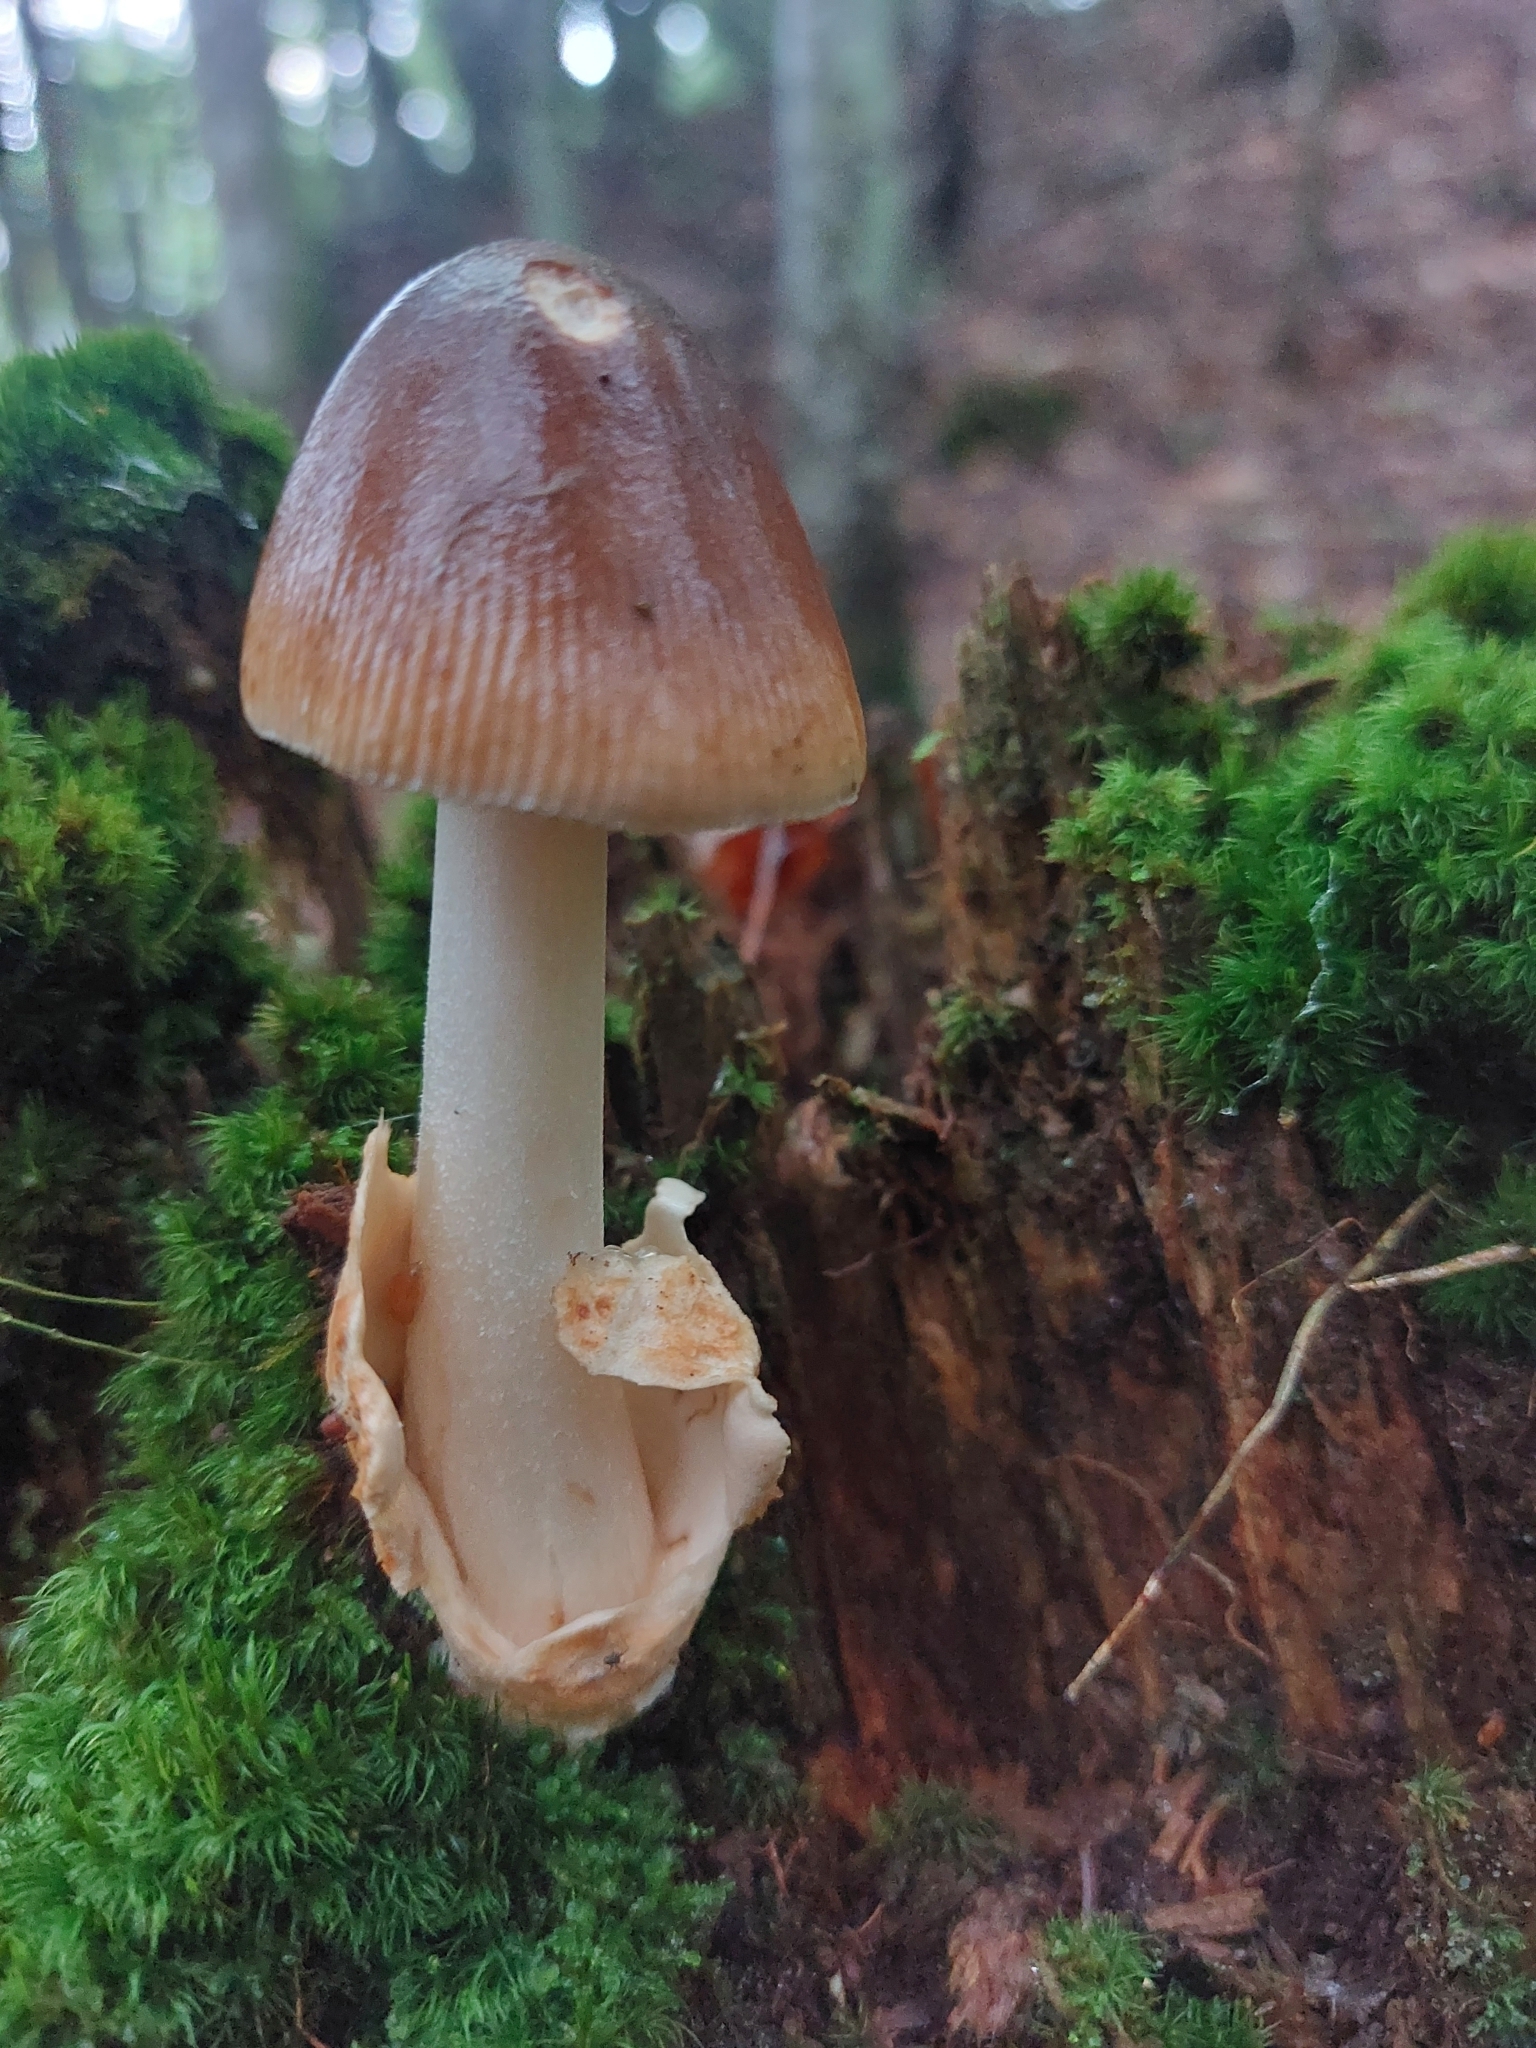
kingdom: Fungi
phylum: Basidiomycota
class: Agaricomycetes
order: Agaricales
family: Amanitaceae
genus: Amanita
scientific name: Amanita fulva
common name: Tawny grisette
